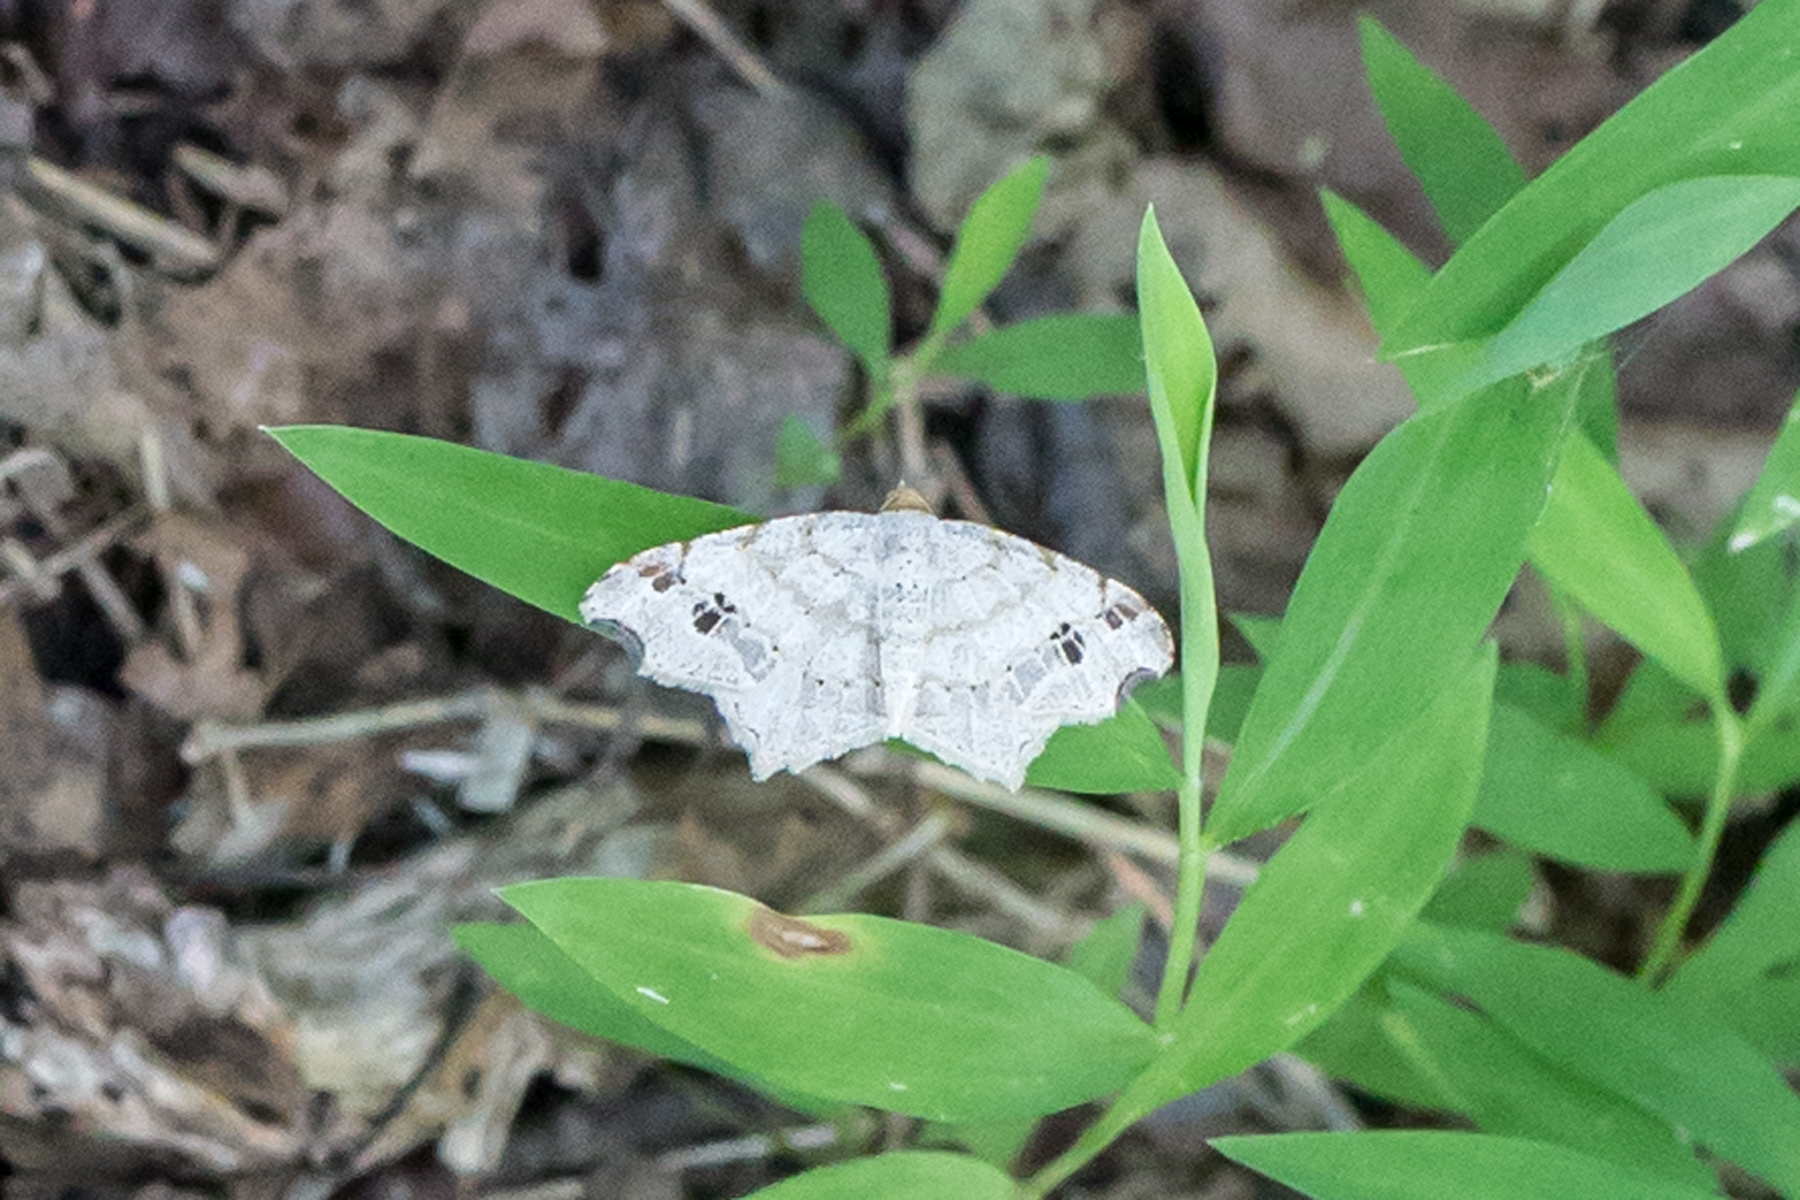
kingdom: Animalia
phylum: Arthropoda
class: Insecta
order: Lepidoptera
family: Geometridae
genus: Macaria
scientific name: Macaria aemulataria
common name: Common angle
